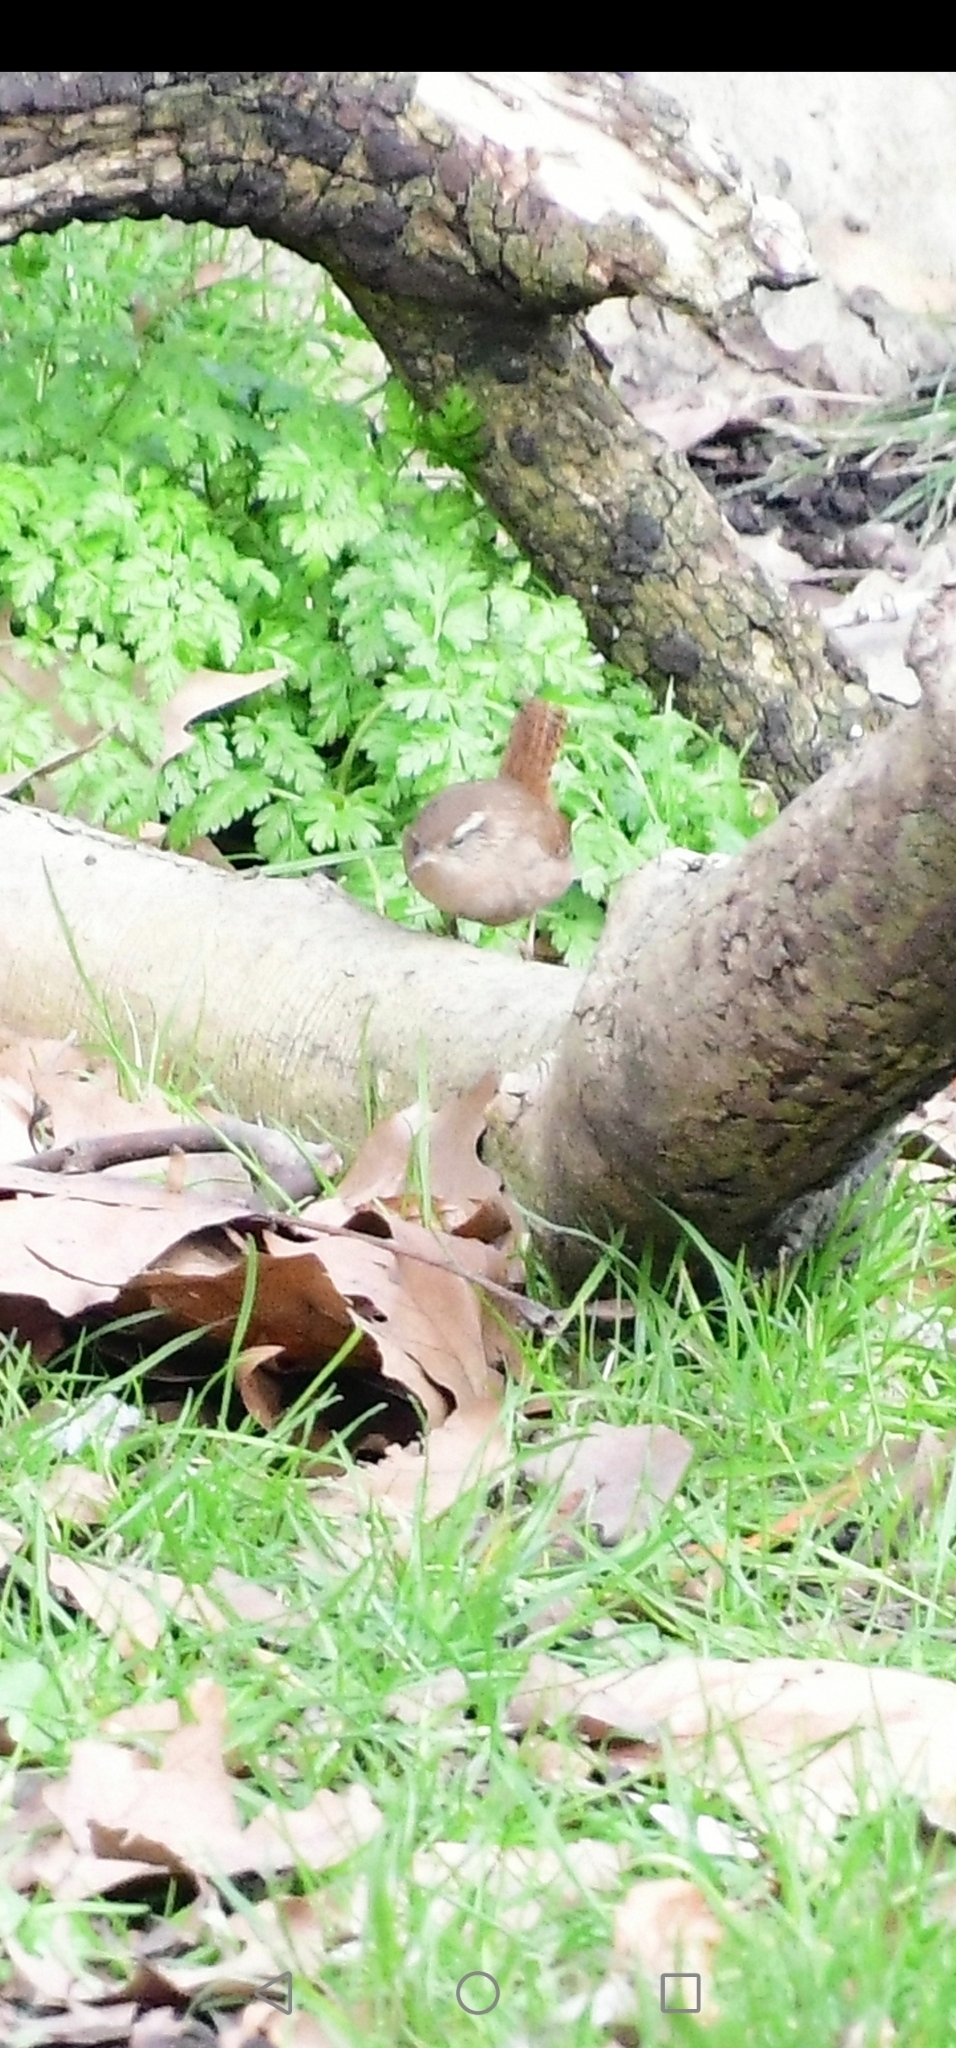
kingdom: Animalia
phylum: Chordata
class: Aves
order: Passeriformes
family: Troglodytidae
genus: Troglodytes
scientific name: Troglodytes troglodytes
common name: Eurasian wren
